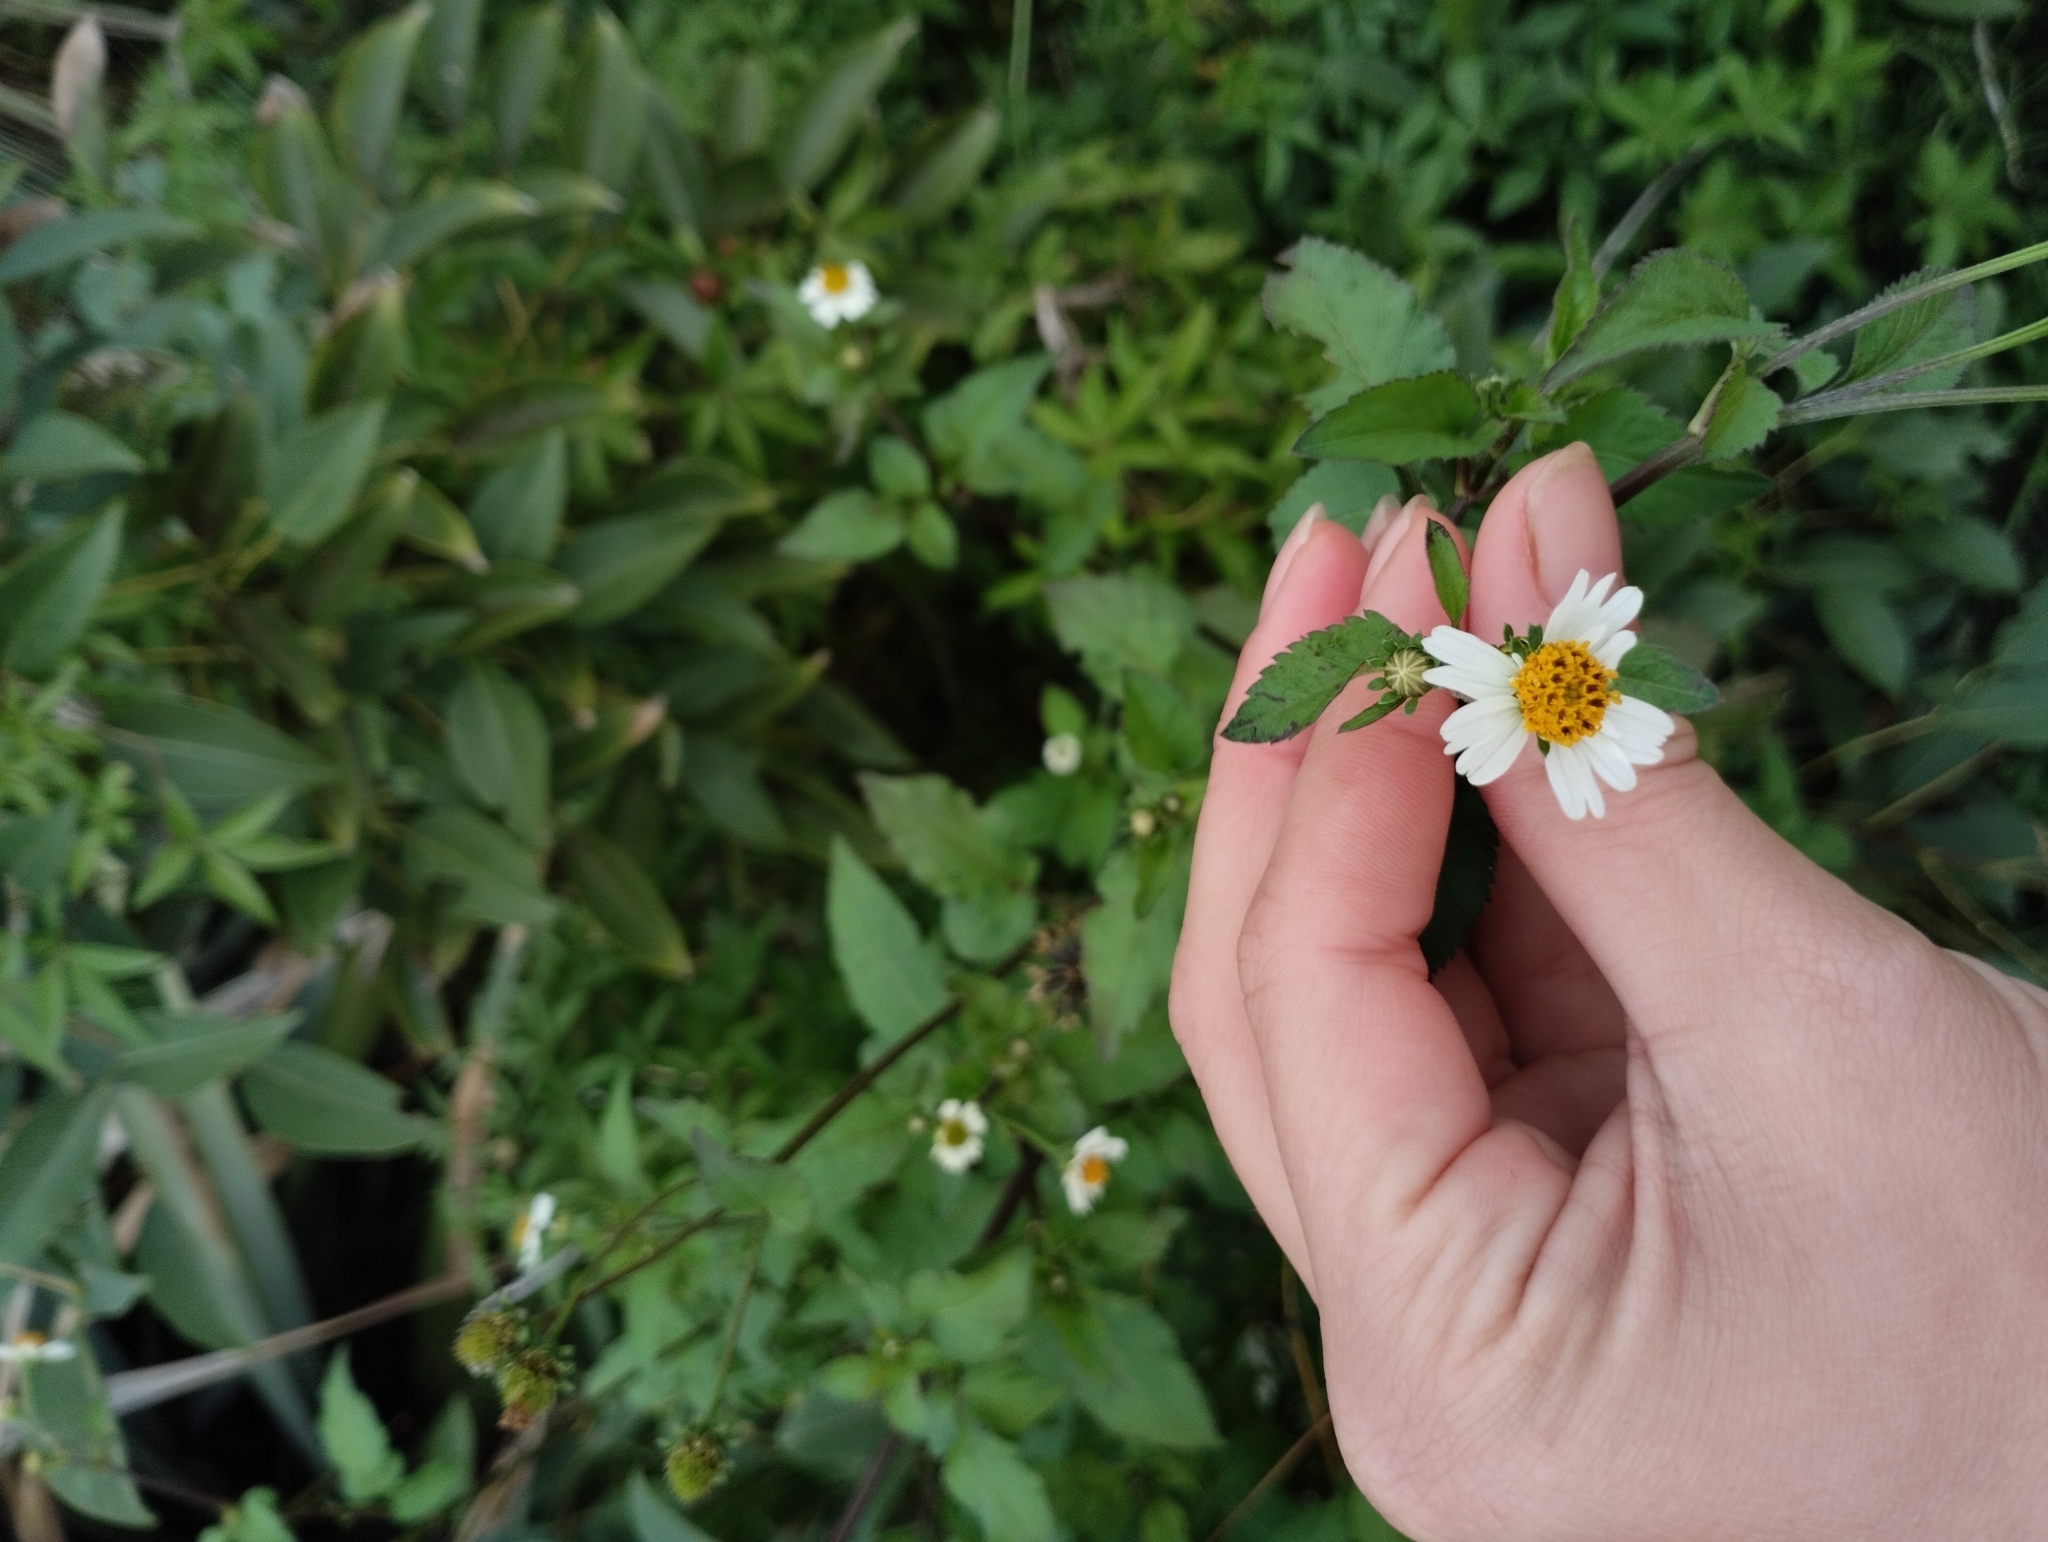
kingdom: Plantae
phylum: Tracheophyta
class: Magnoliopsida
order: Asterales
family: Asteraceae
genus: Bidens
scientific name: Bidens pilosa
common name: Black-jack
